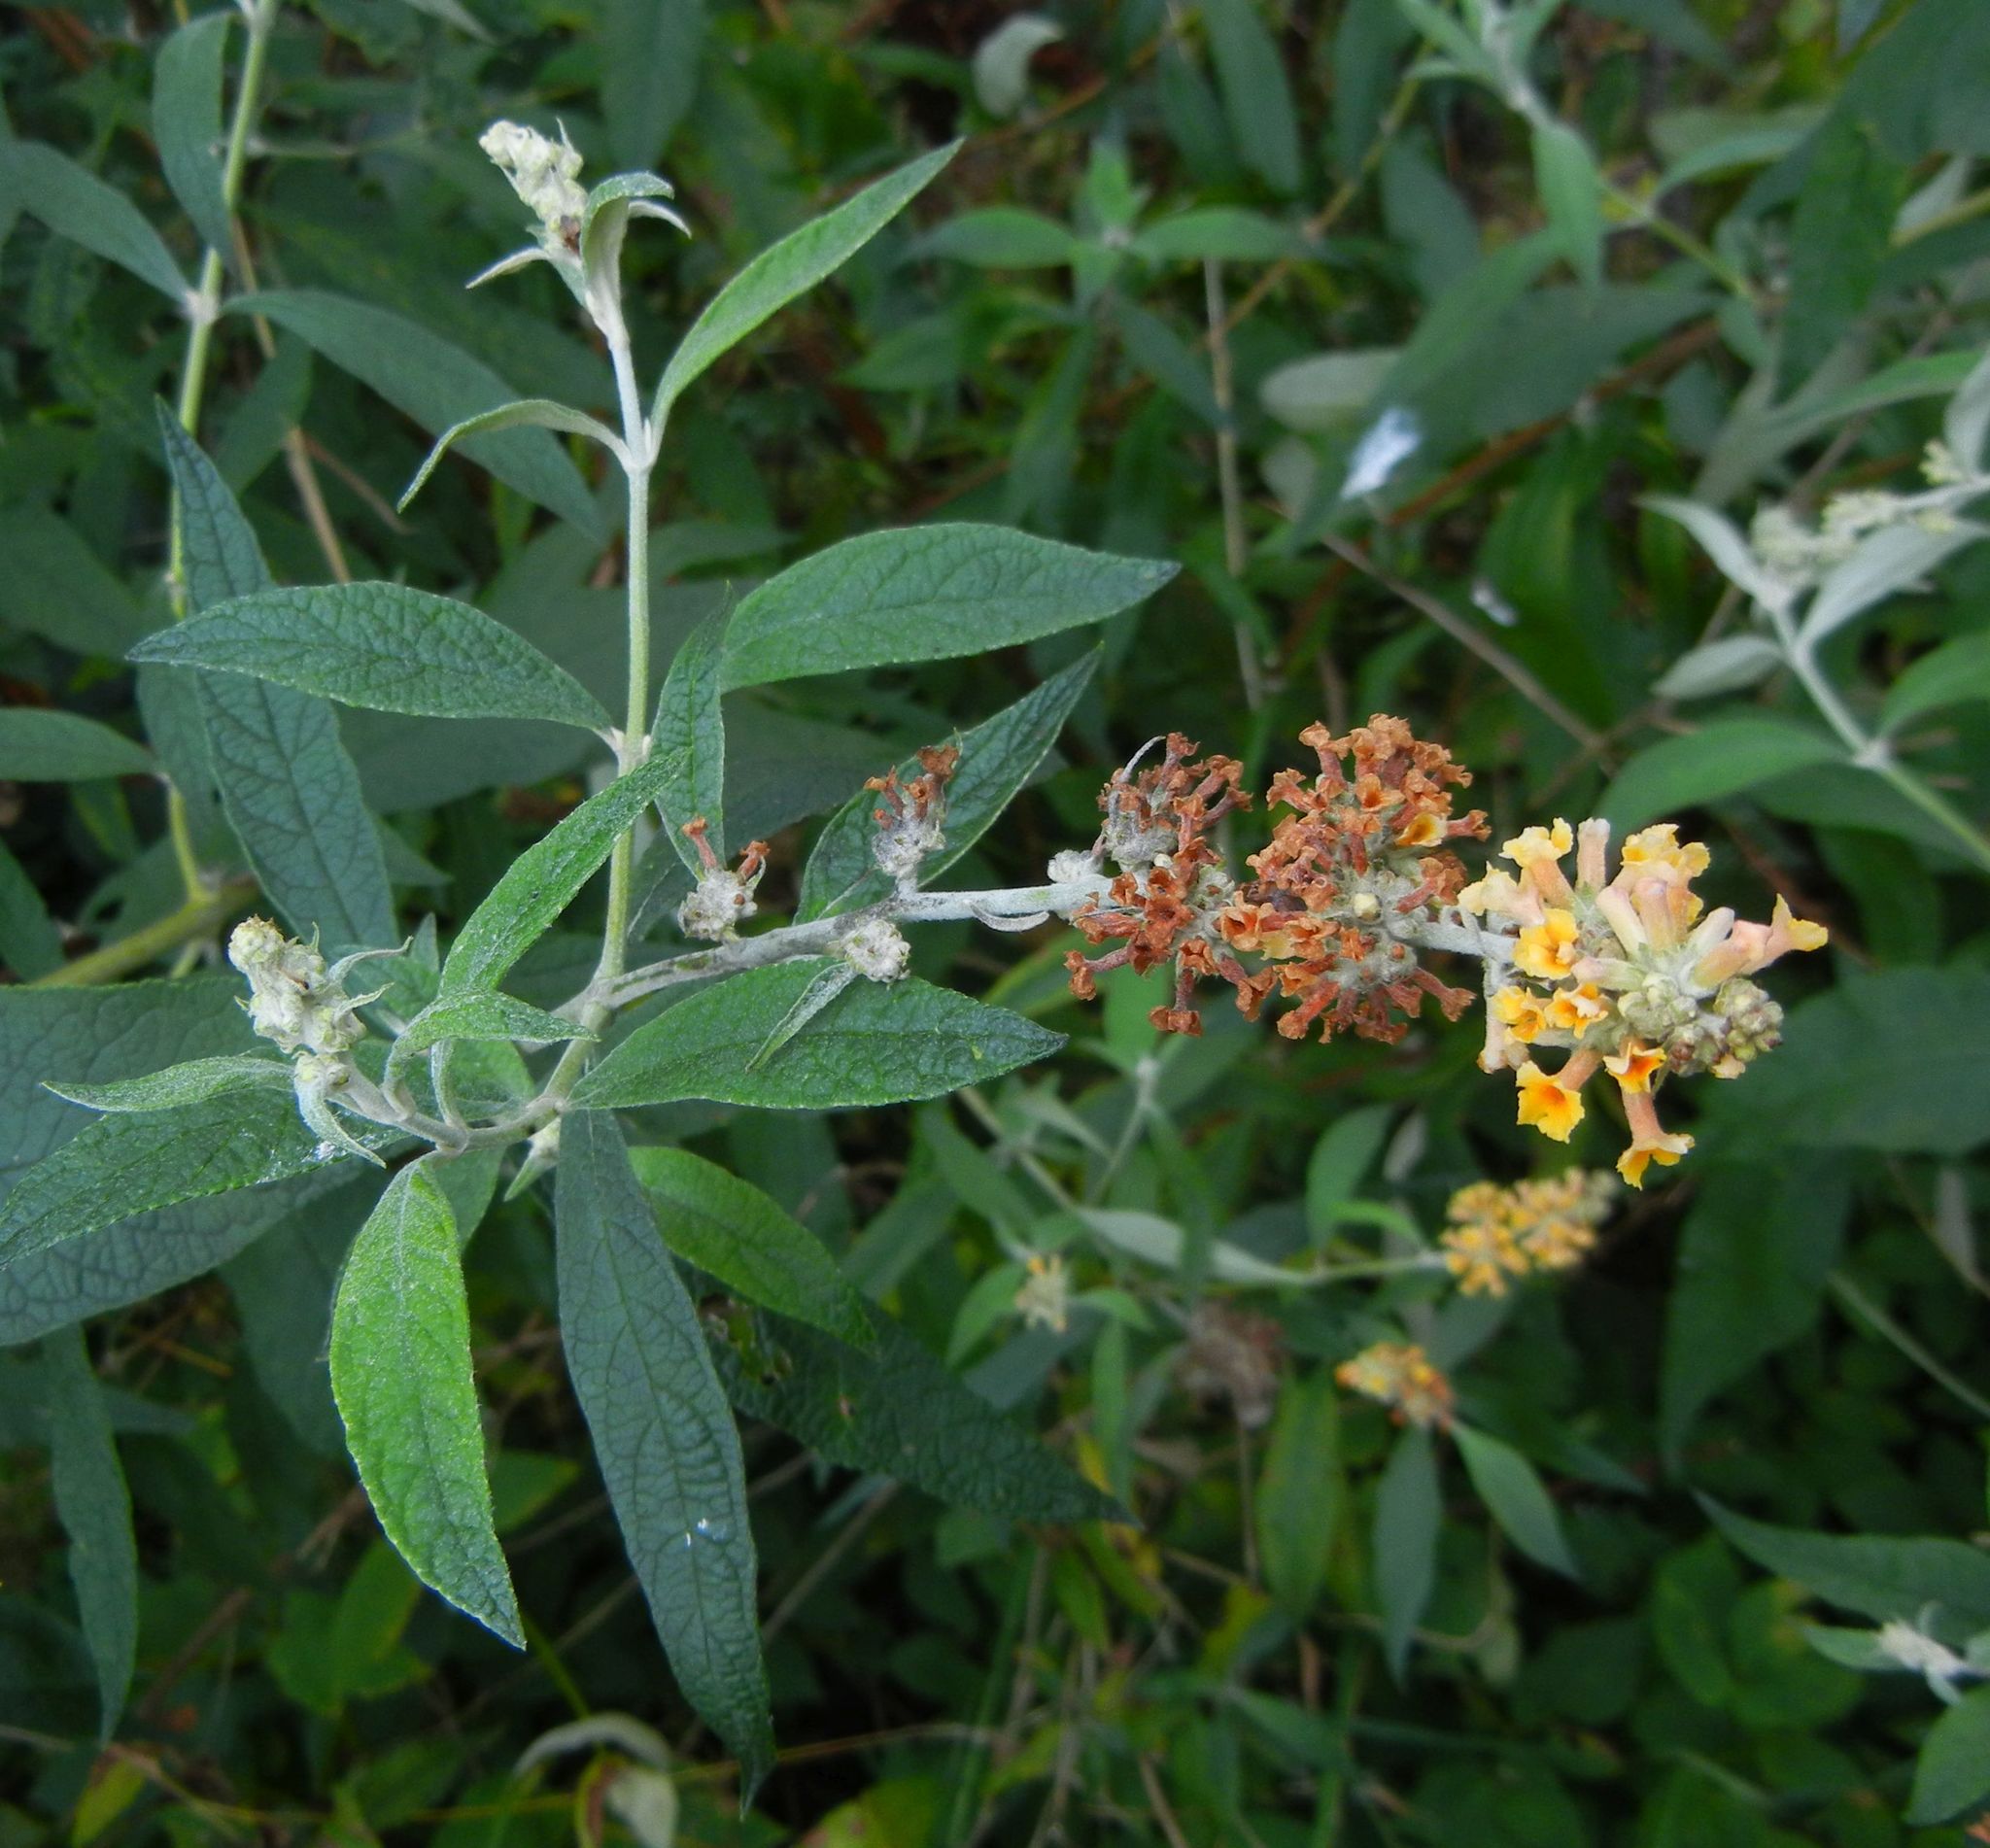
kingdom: Plantae
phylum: Tracheophyta
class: Magnoliopsida
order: Lamiales
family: Scrophulariaceae
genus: Buddleja
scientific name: Buddleja weyeriana
